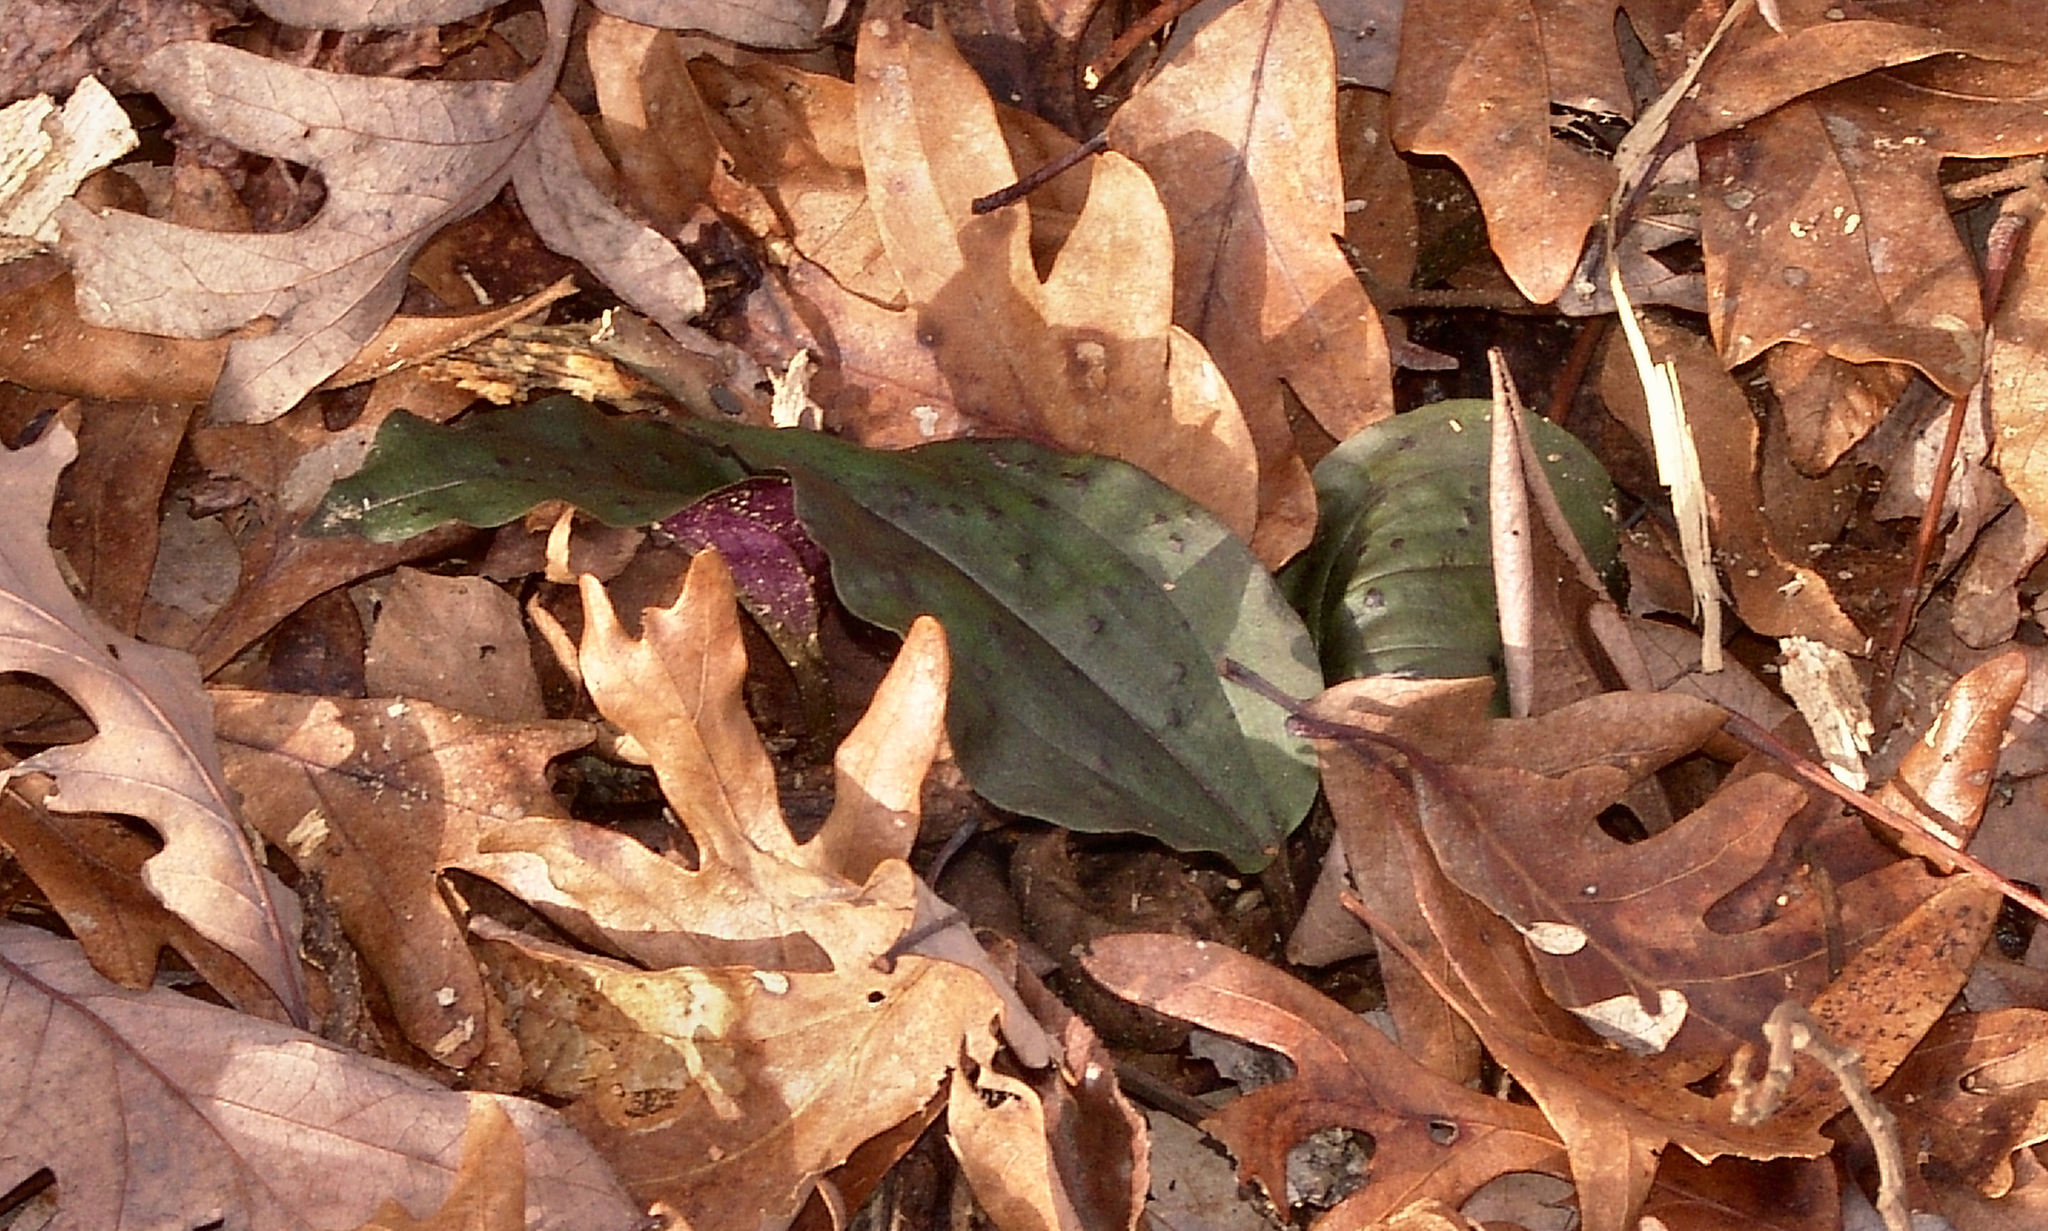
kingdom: Plantae
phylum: Tracheophyta
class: Liliopsida
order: Asparagales
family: Orchidaceae
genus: Tipularia
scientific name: Tipularia discolor
